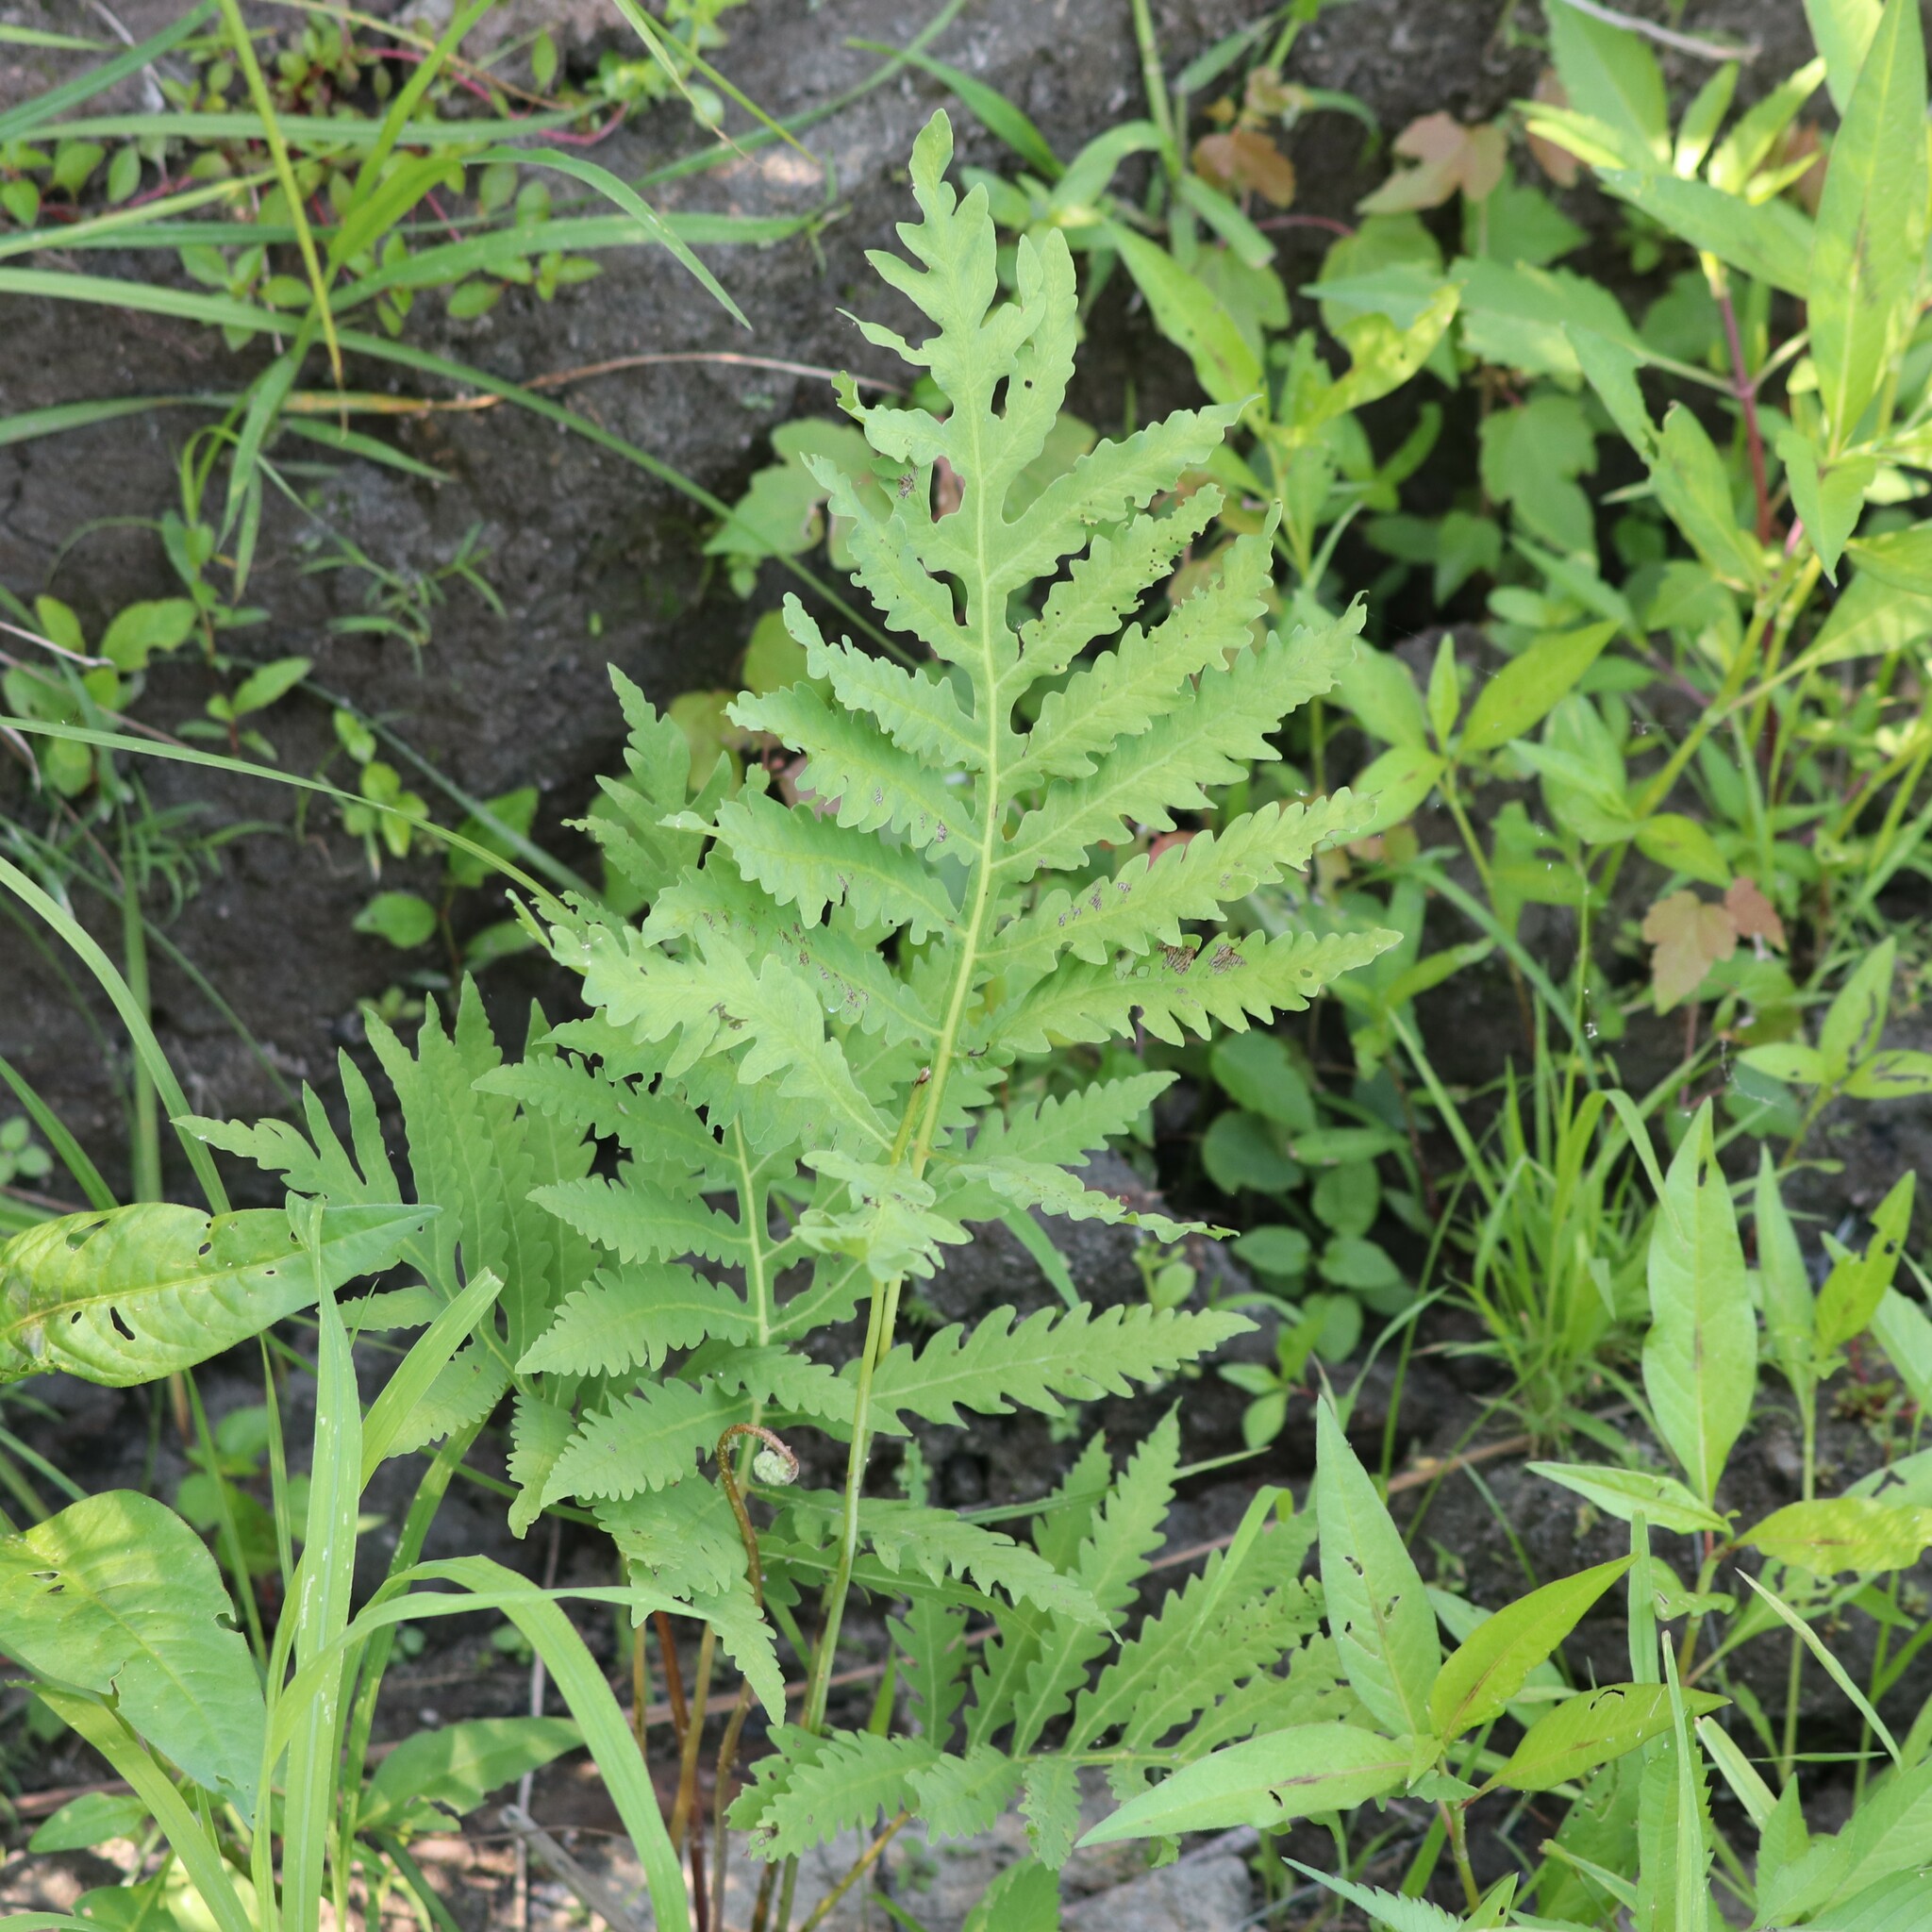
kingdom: Plantae
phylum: Tracheophyta
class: Polypodiopsida
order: Polypodiales
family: Onocleaceae
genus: Onoclea
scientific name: Onoclea sensibilis
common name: Sensitive fern
